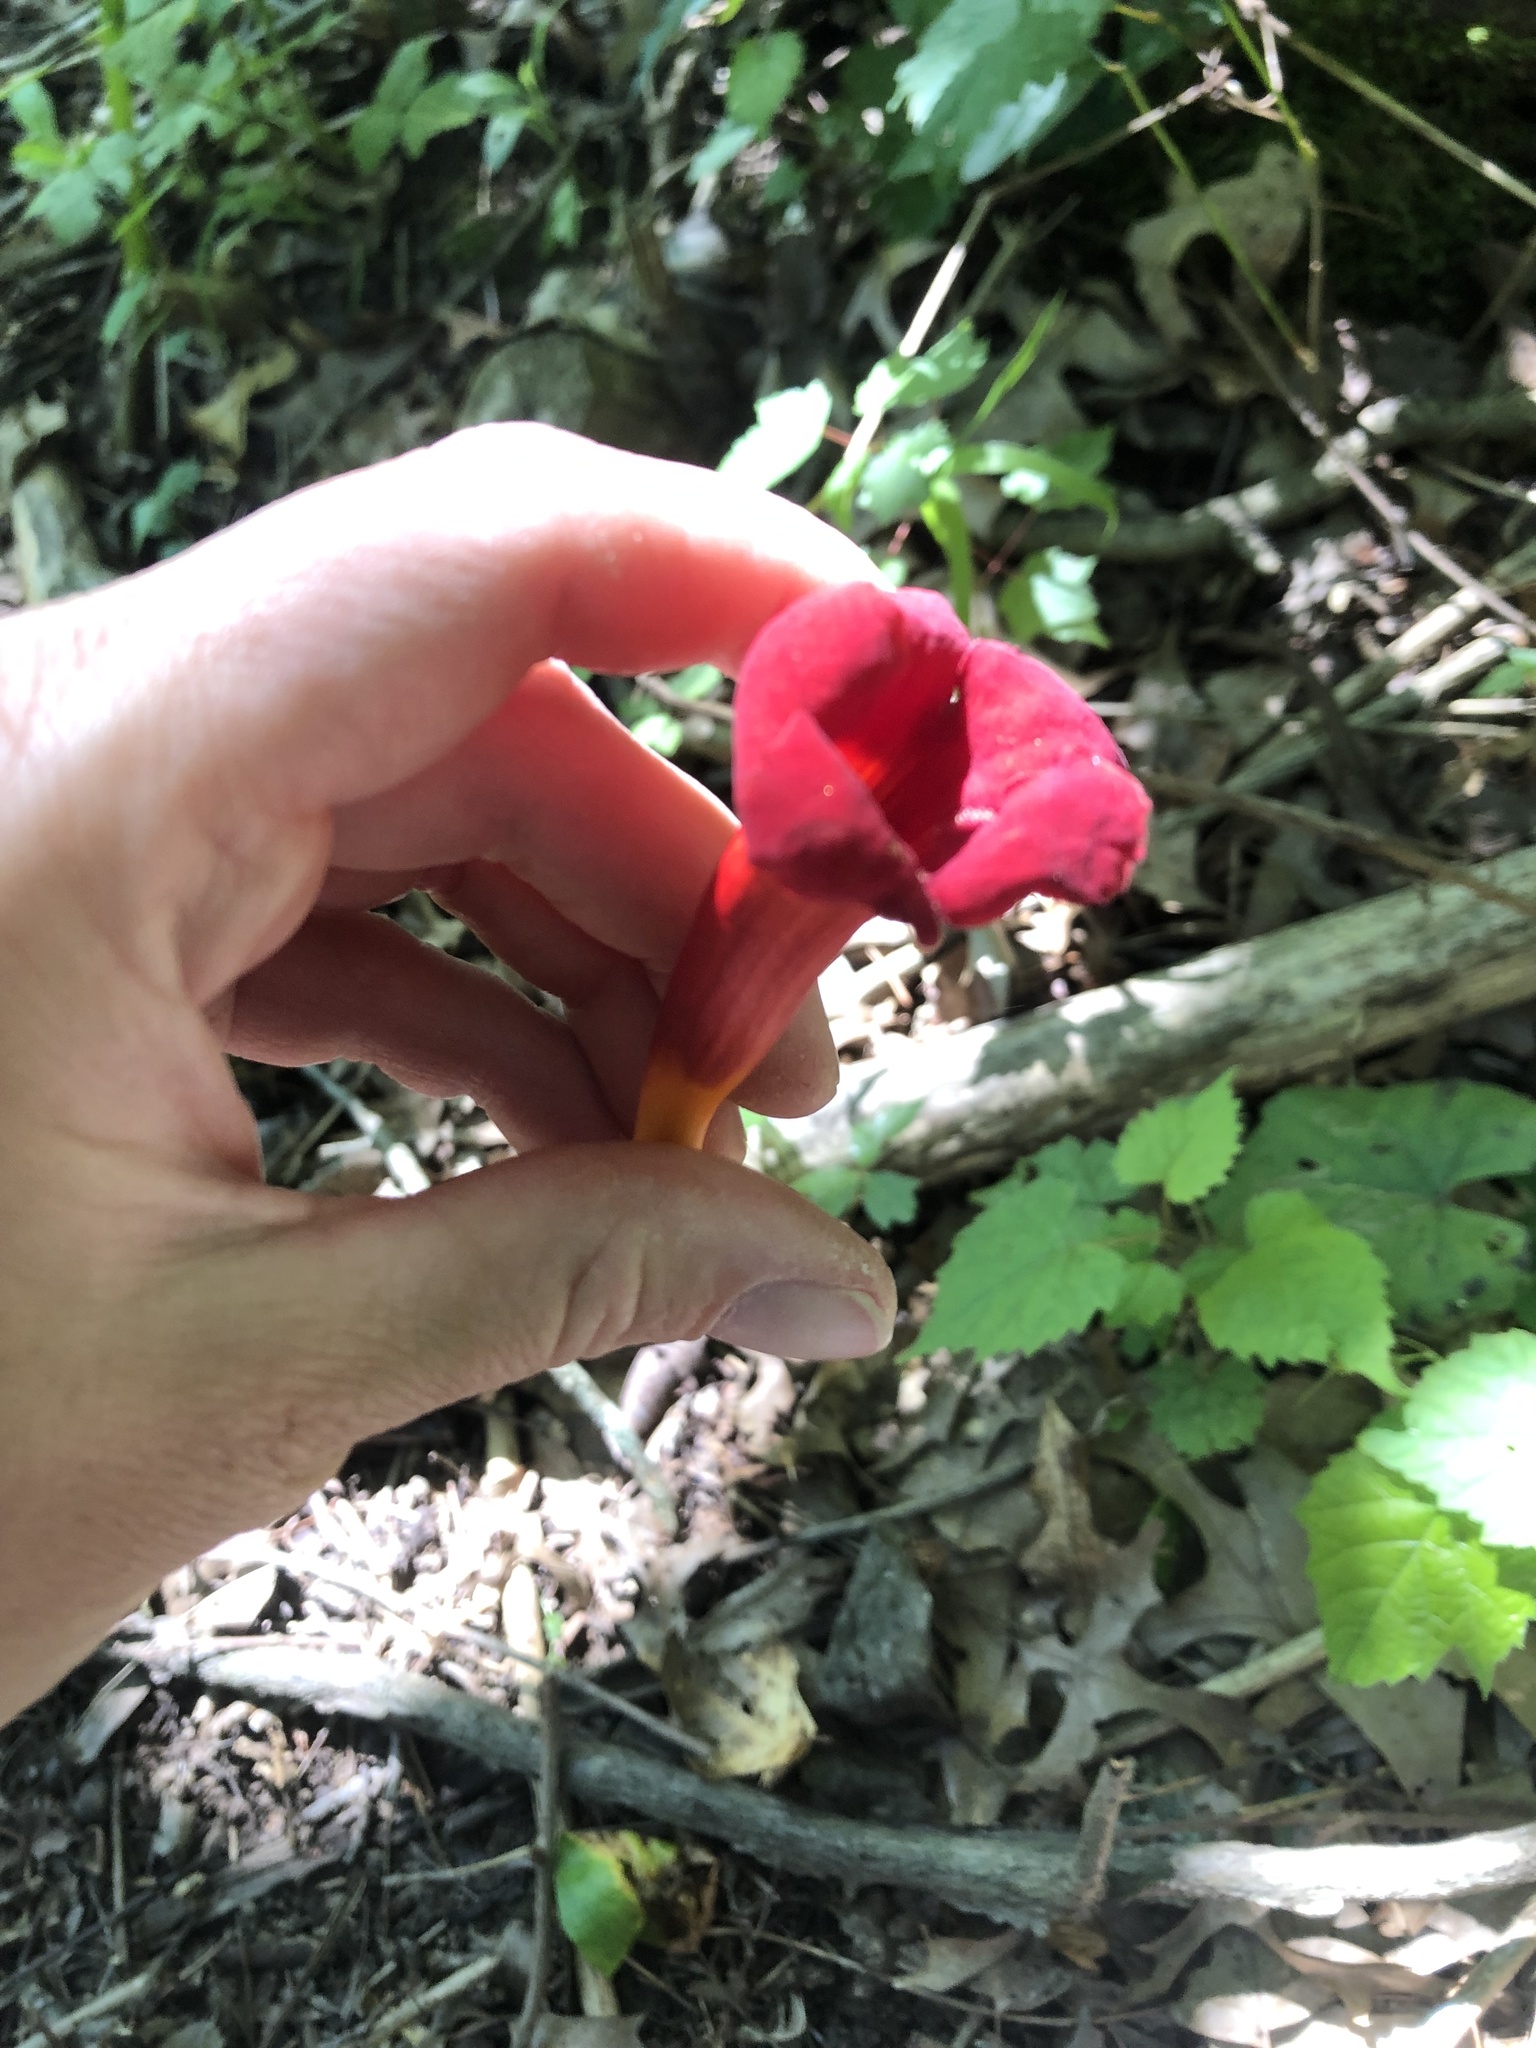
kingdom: Plantae
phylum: Tracheophyta
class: Magnoliopsida
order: Lamiales
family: Bignoniaceae
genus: Campsis
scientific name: Campsis radicans
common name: Trumpet-creeper
